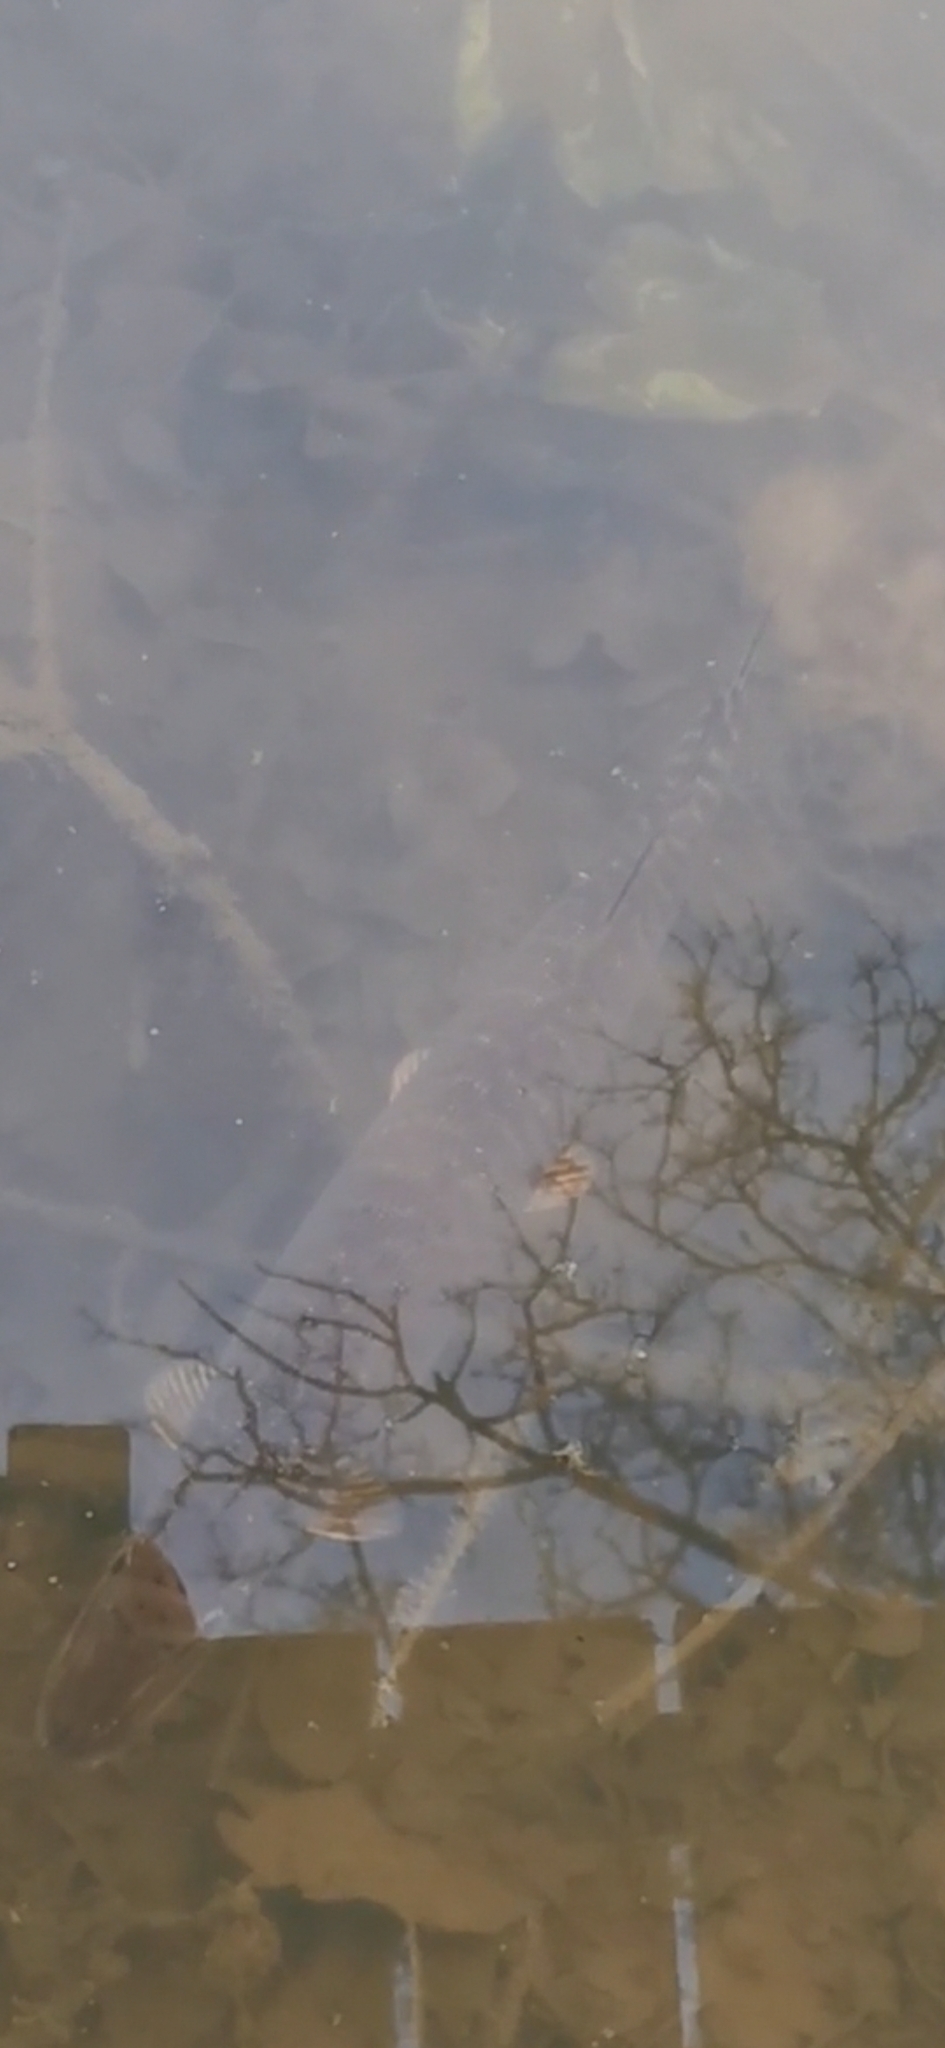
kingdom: Animalia
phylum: Chordata
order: Esociformes
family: Esocidae
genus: Esox
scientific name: Esox lucius
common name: Northern pike
